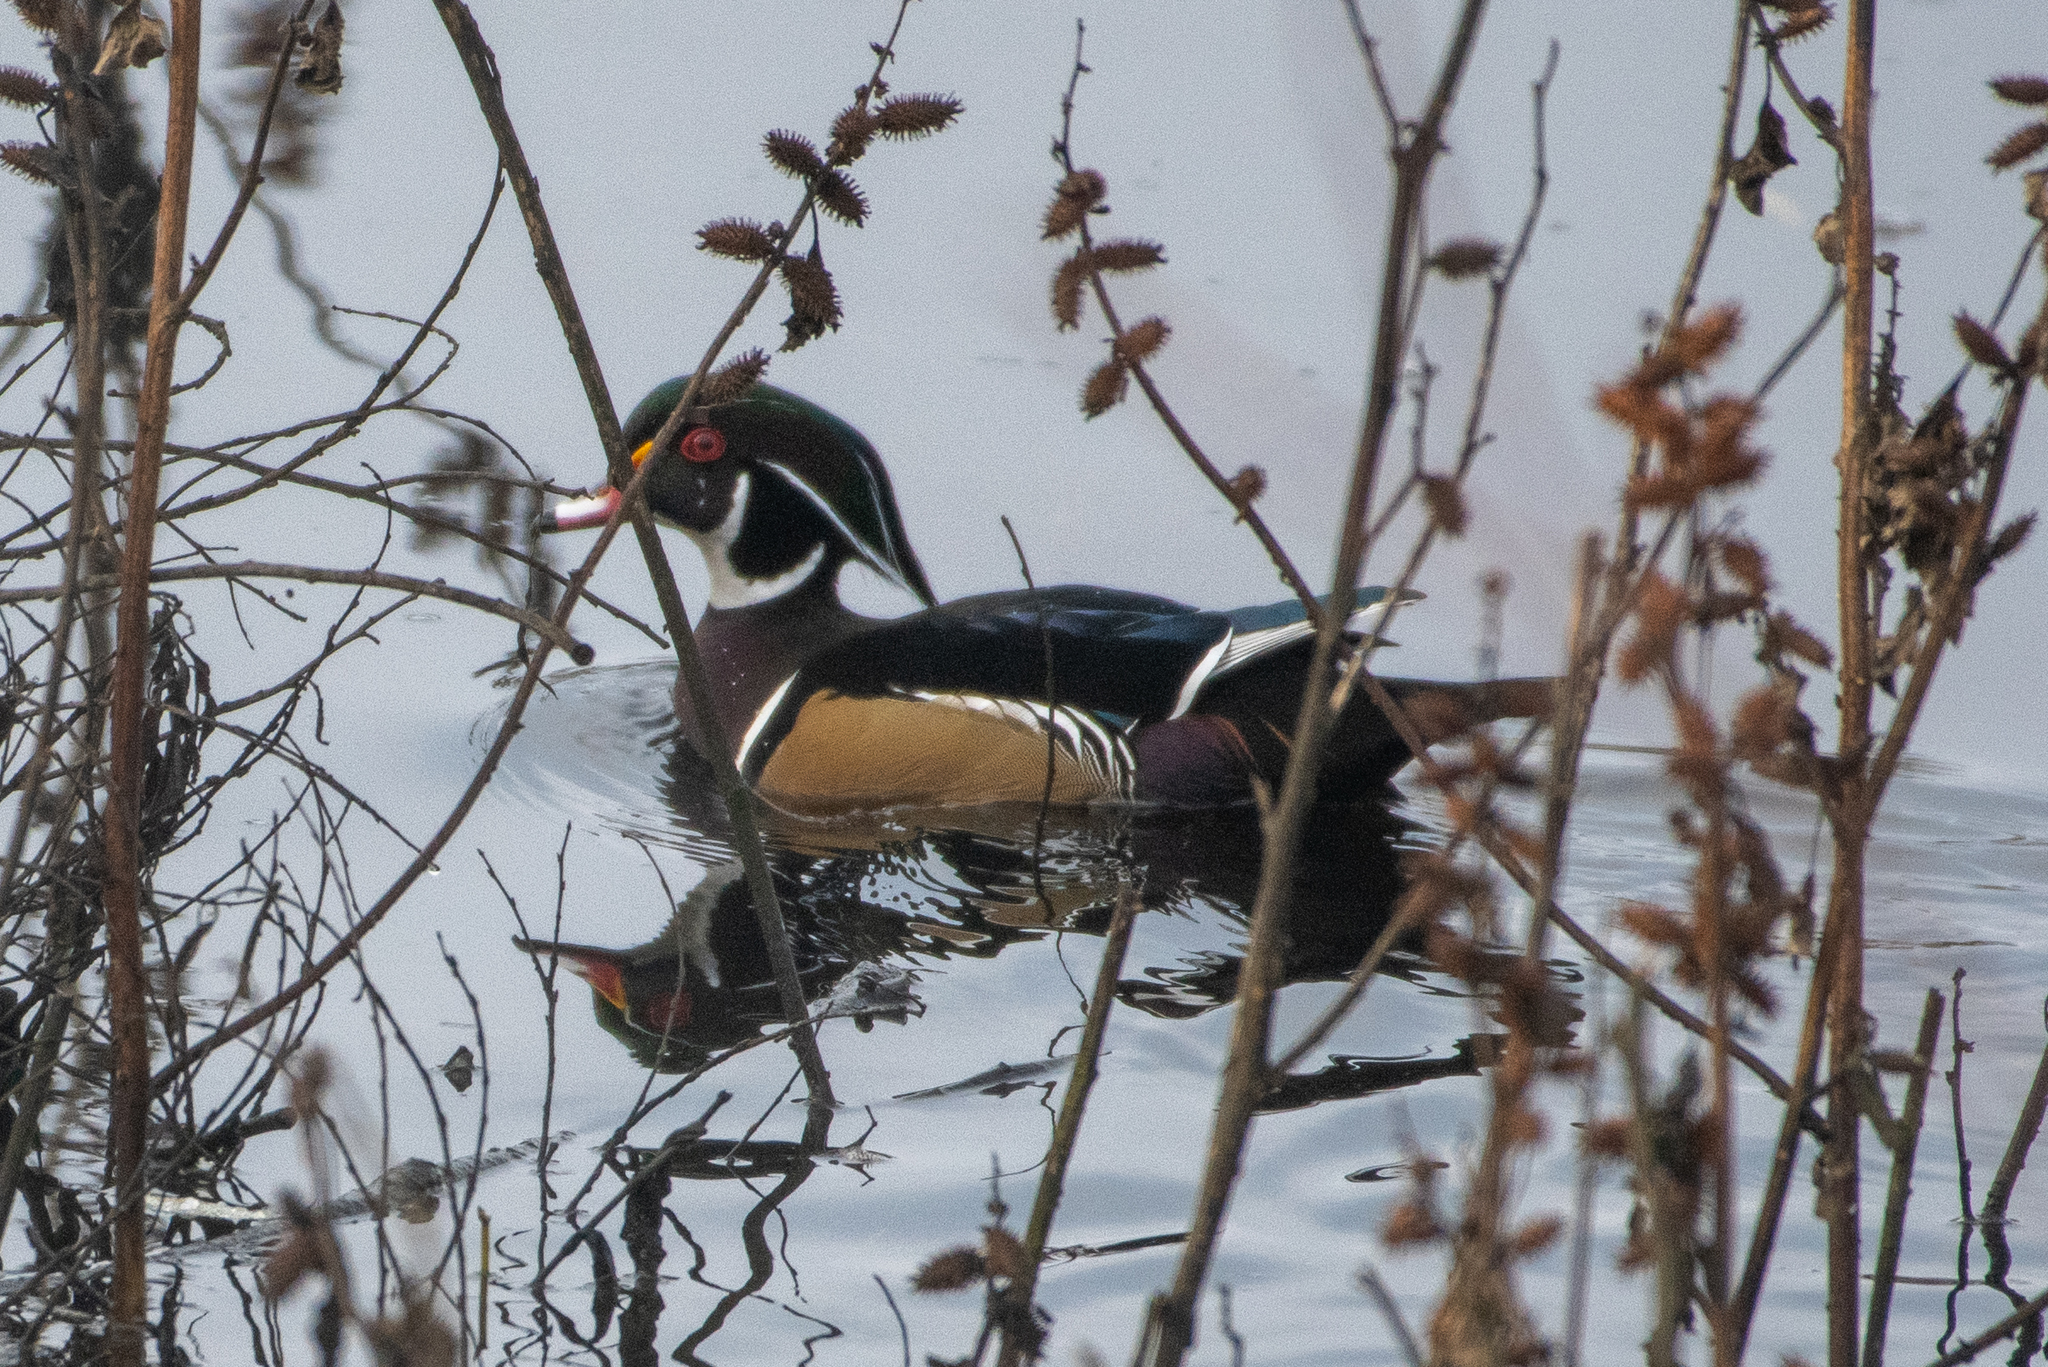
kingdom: Animalia
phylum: Chordata
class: Aves
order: Anseriformes
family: Anatidae
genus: Aix
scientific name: Aix sponsa
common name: Wood duck
